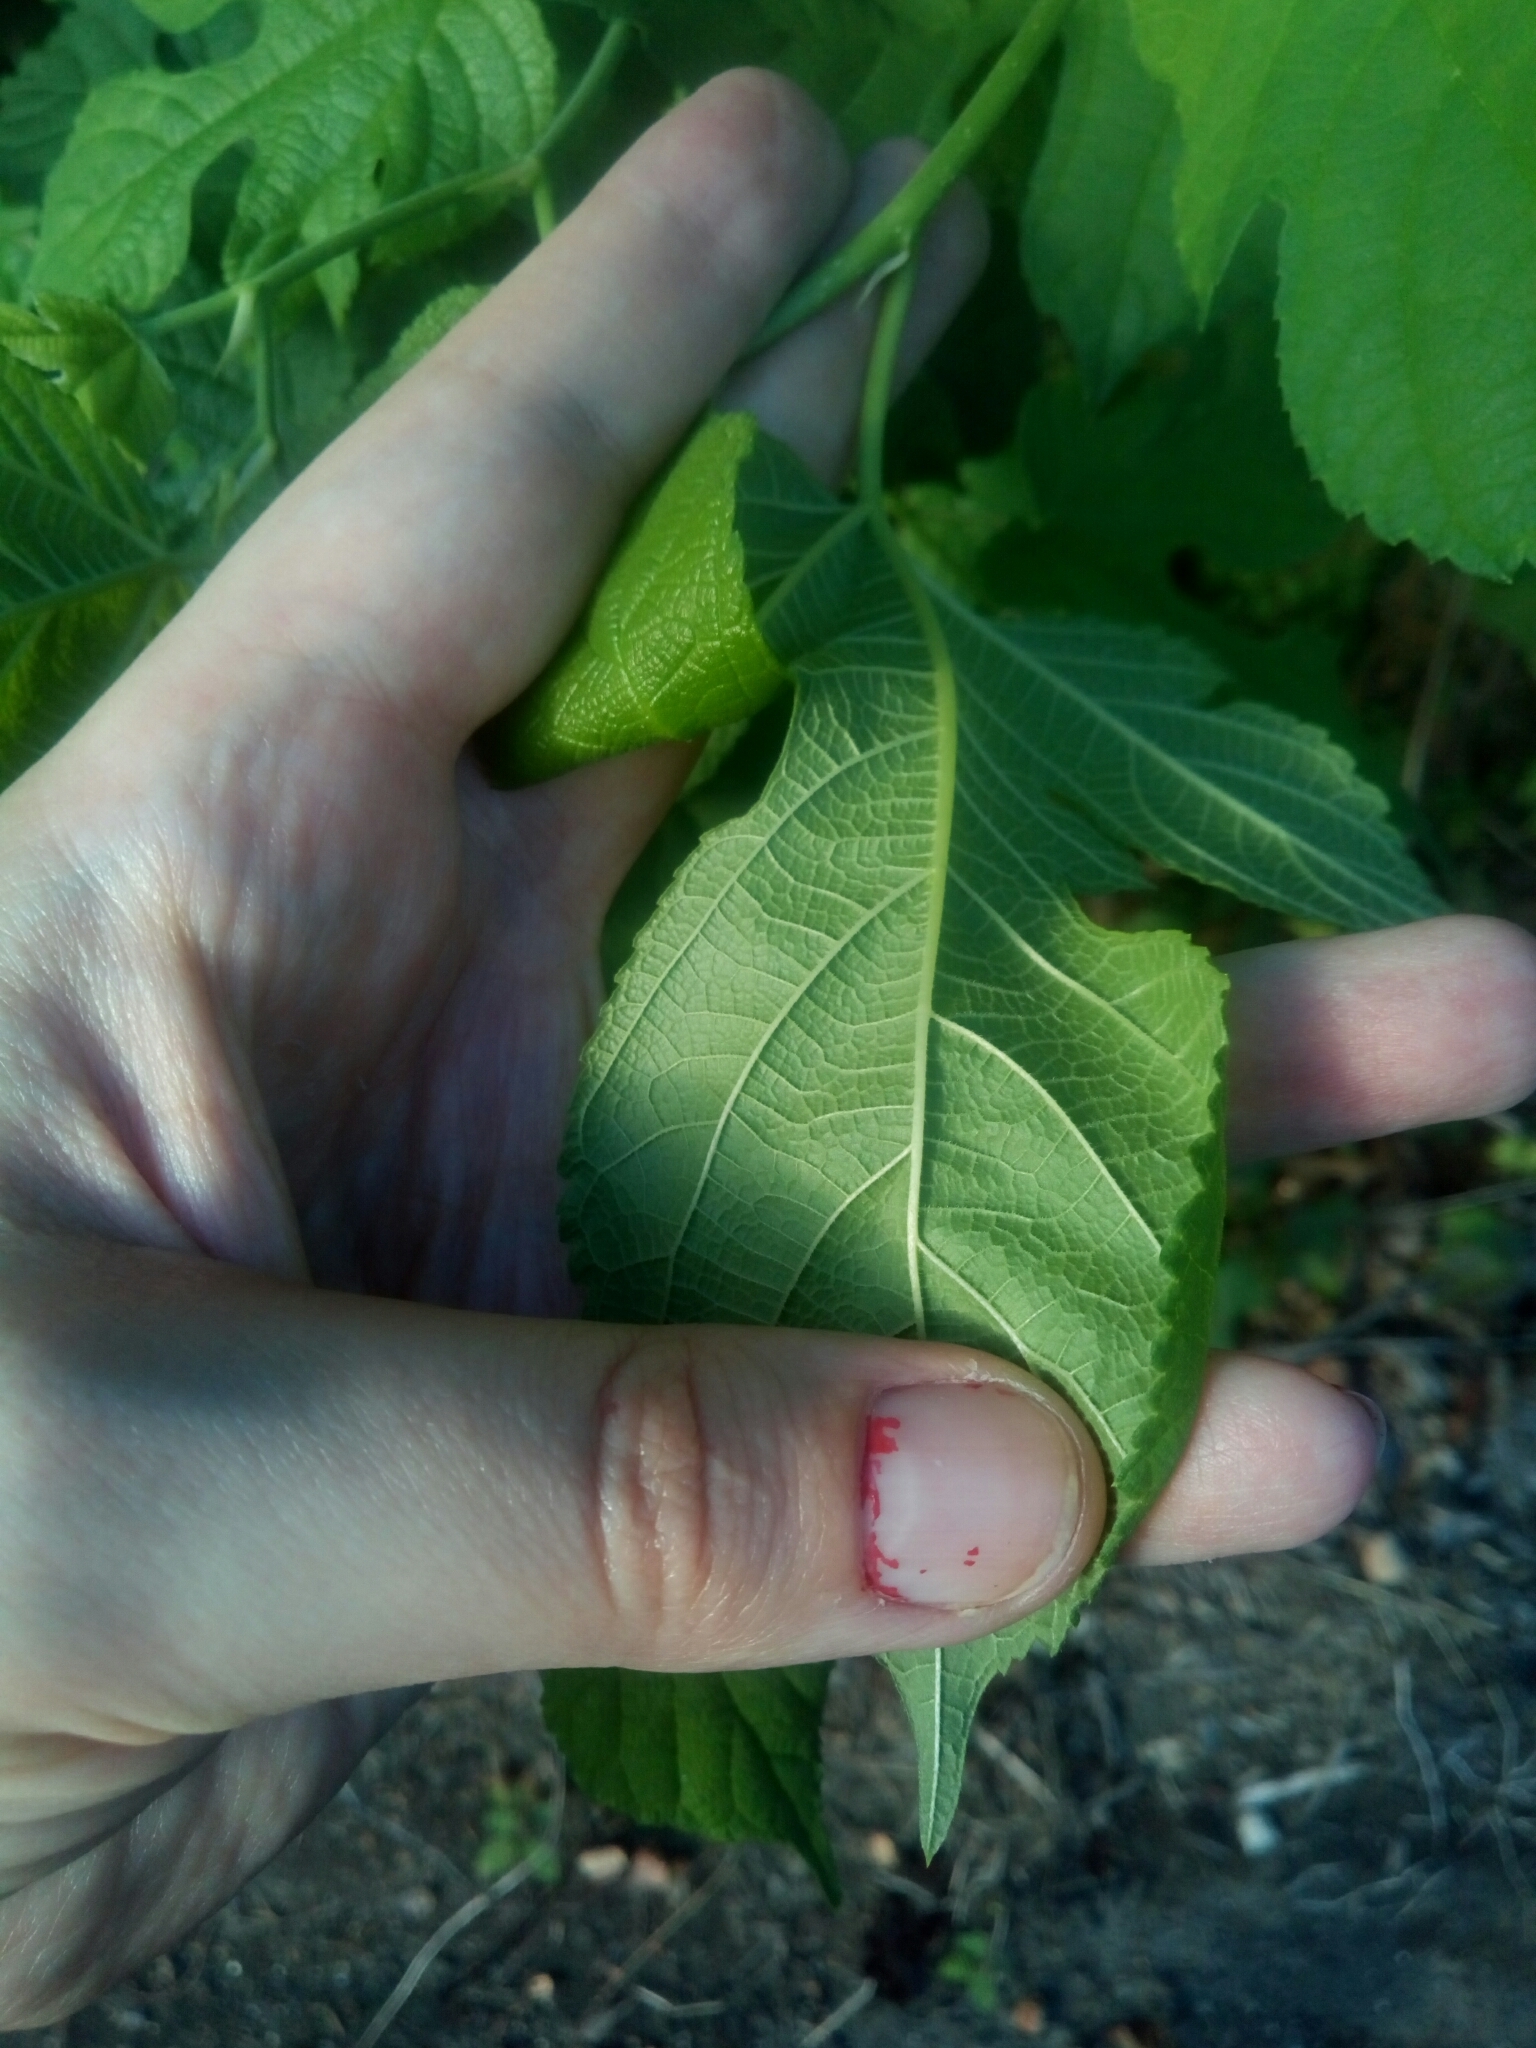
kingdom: Plantae
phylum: Tracheophyta
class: Magnoliopsida
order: Rosales
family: Moraceae
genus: Morus
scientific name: Morus rubra
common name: Red mulberry
